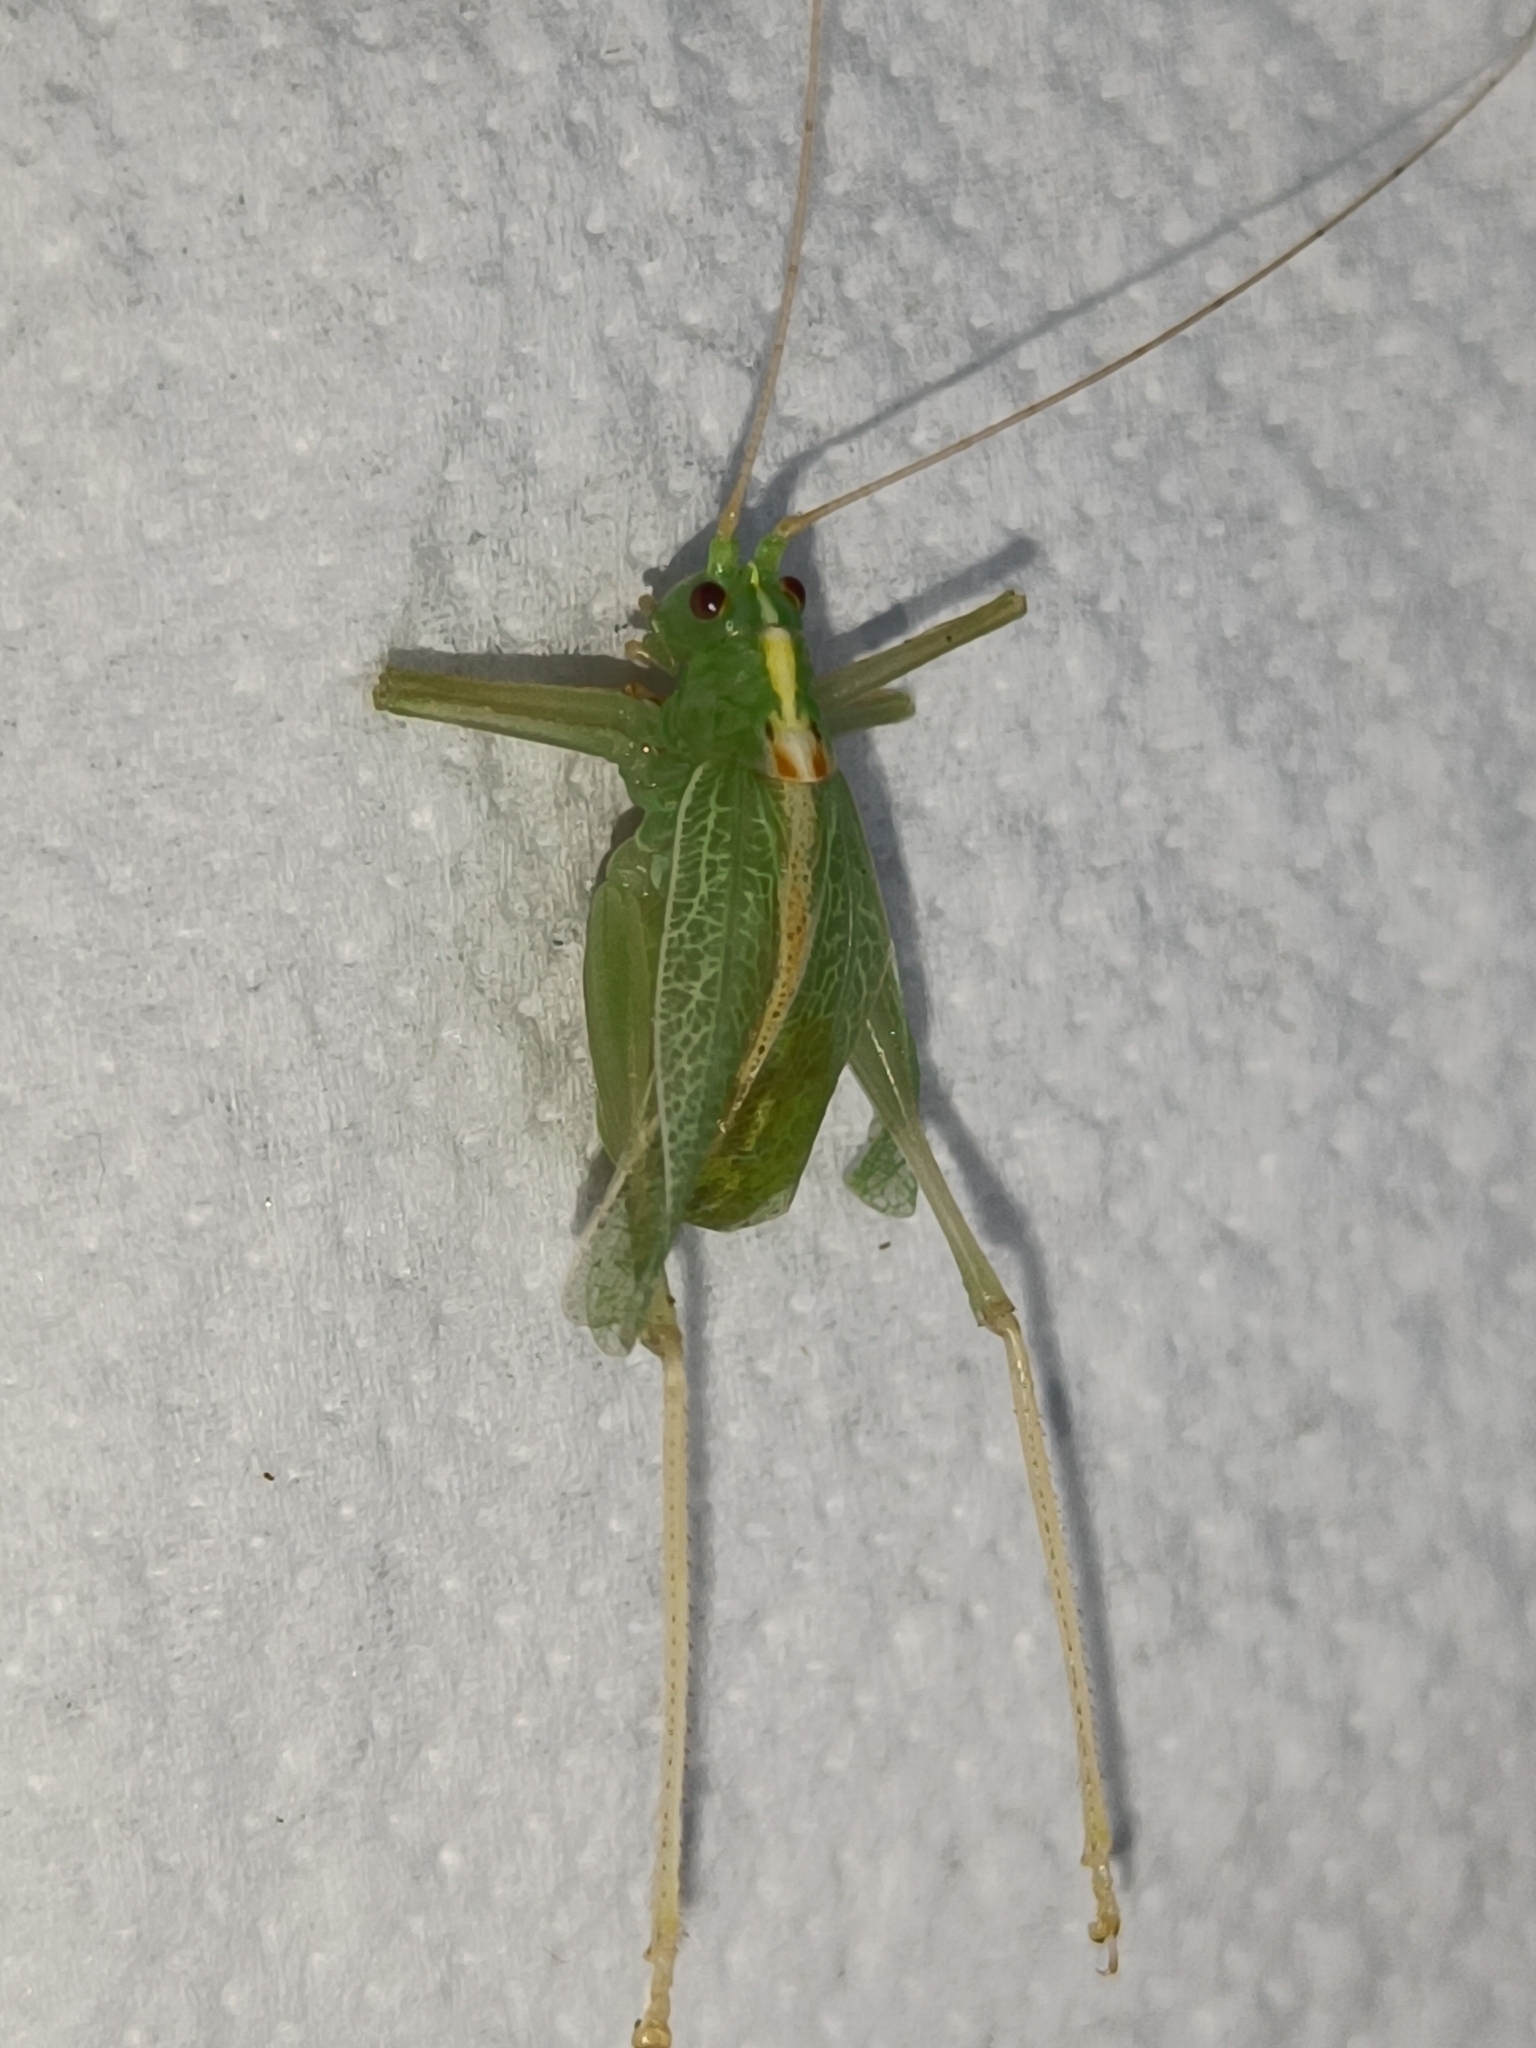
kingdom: Animalia
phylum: Arthropoda
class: Insecta
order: Orthoptera
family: Tettigoniidae
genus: Meconema
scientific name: Meconema thalassinum
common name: Oak bush-cricket
